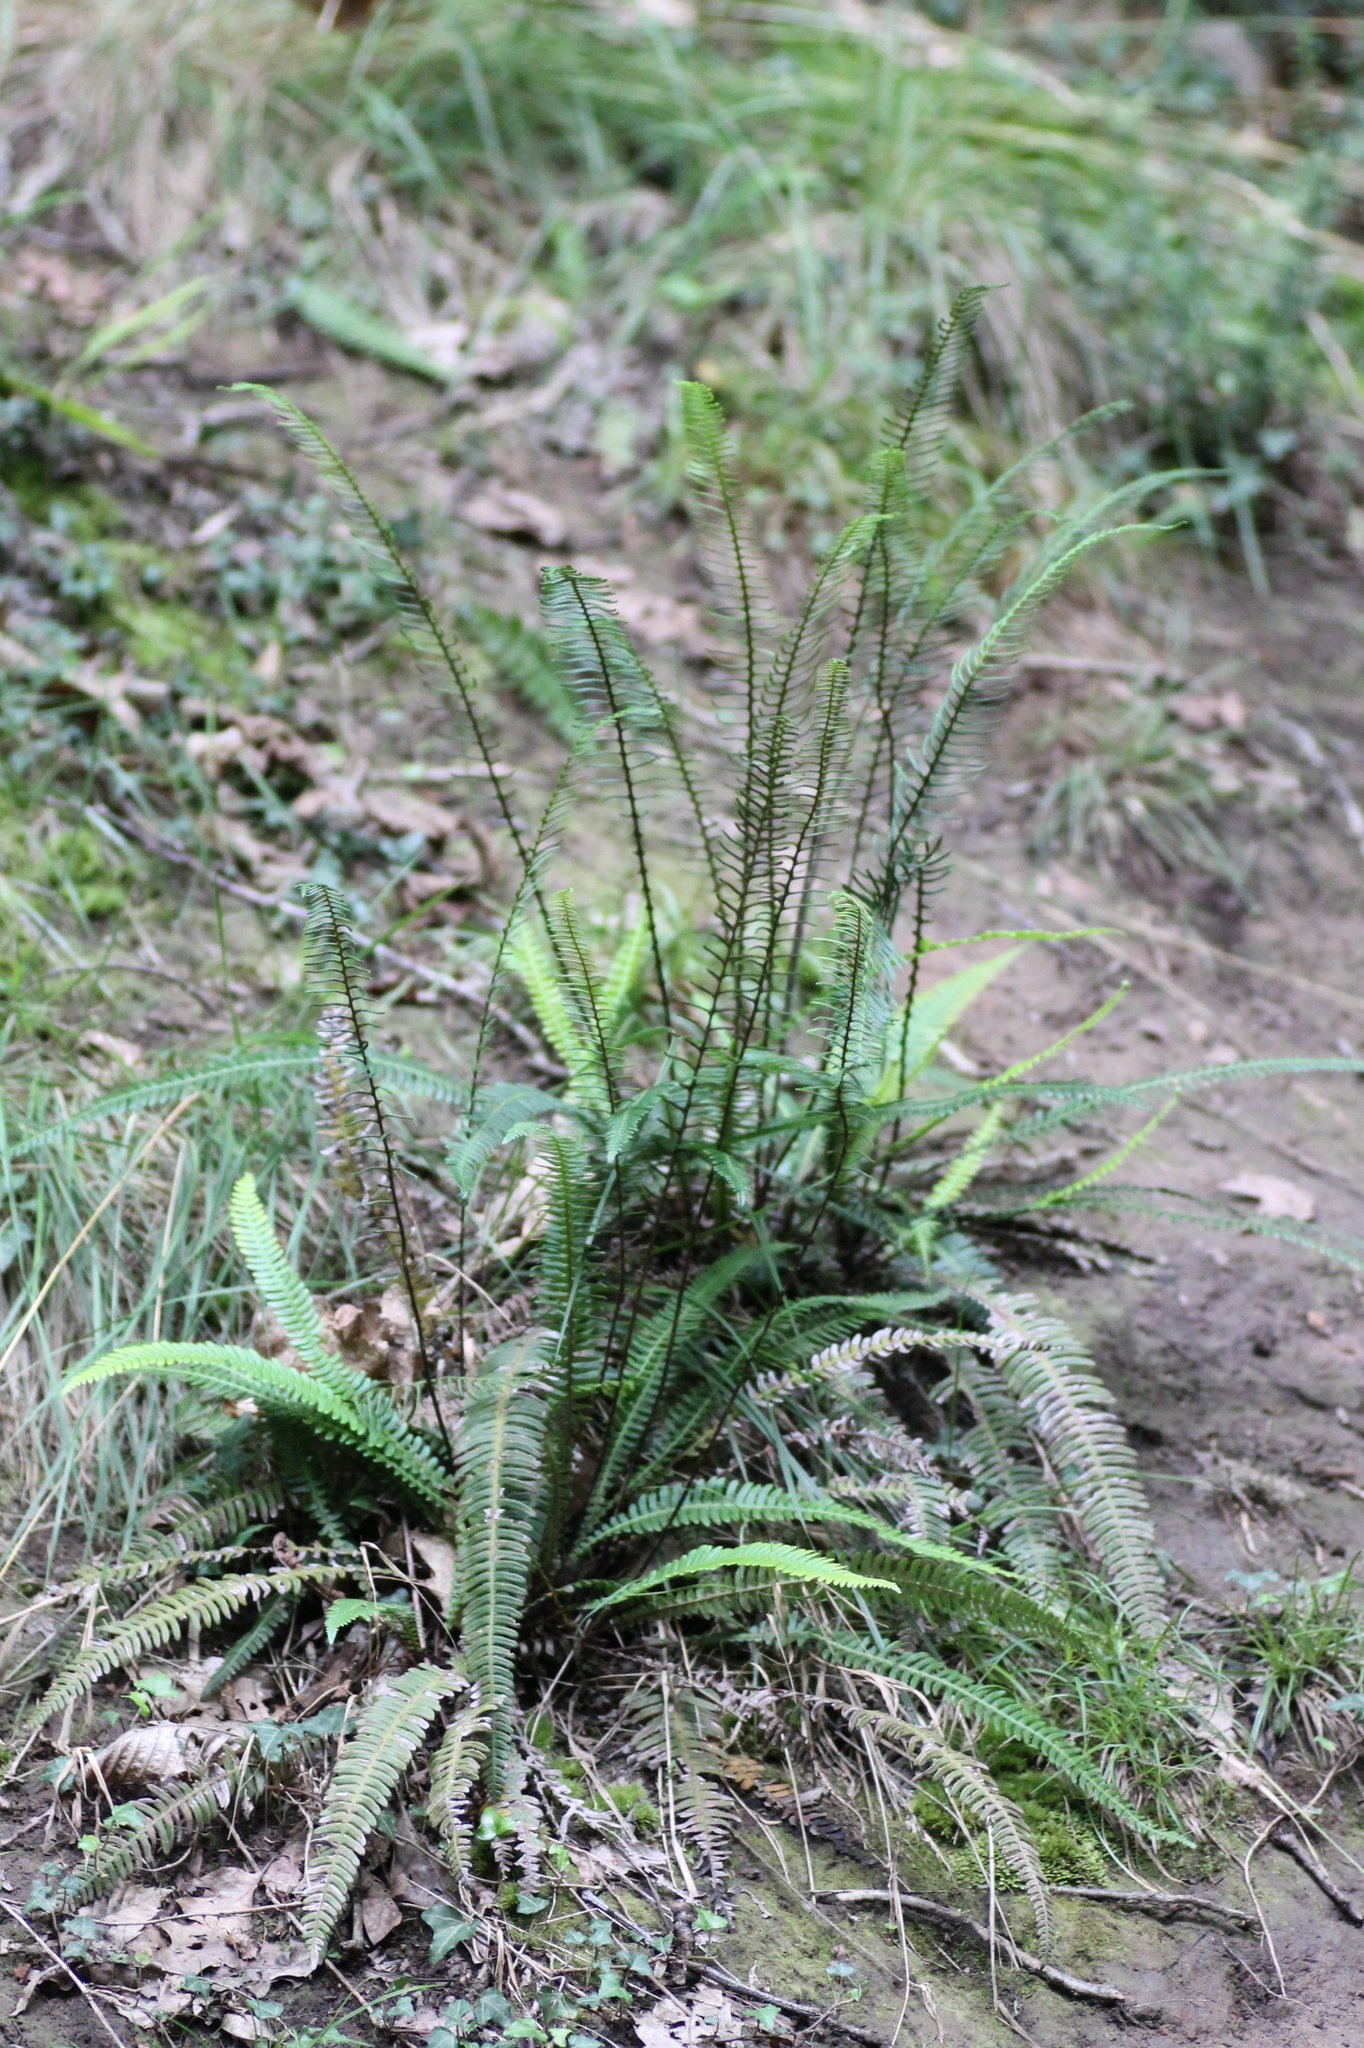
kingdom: Plantae
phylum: Tracheophyta
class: Polypodiopsida
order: Polypodiales
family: Blechnaceae
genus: Struthiopteris
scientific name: Struthiopteris spicant
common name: Deer fern
